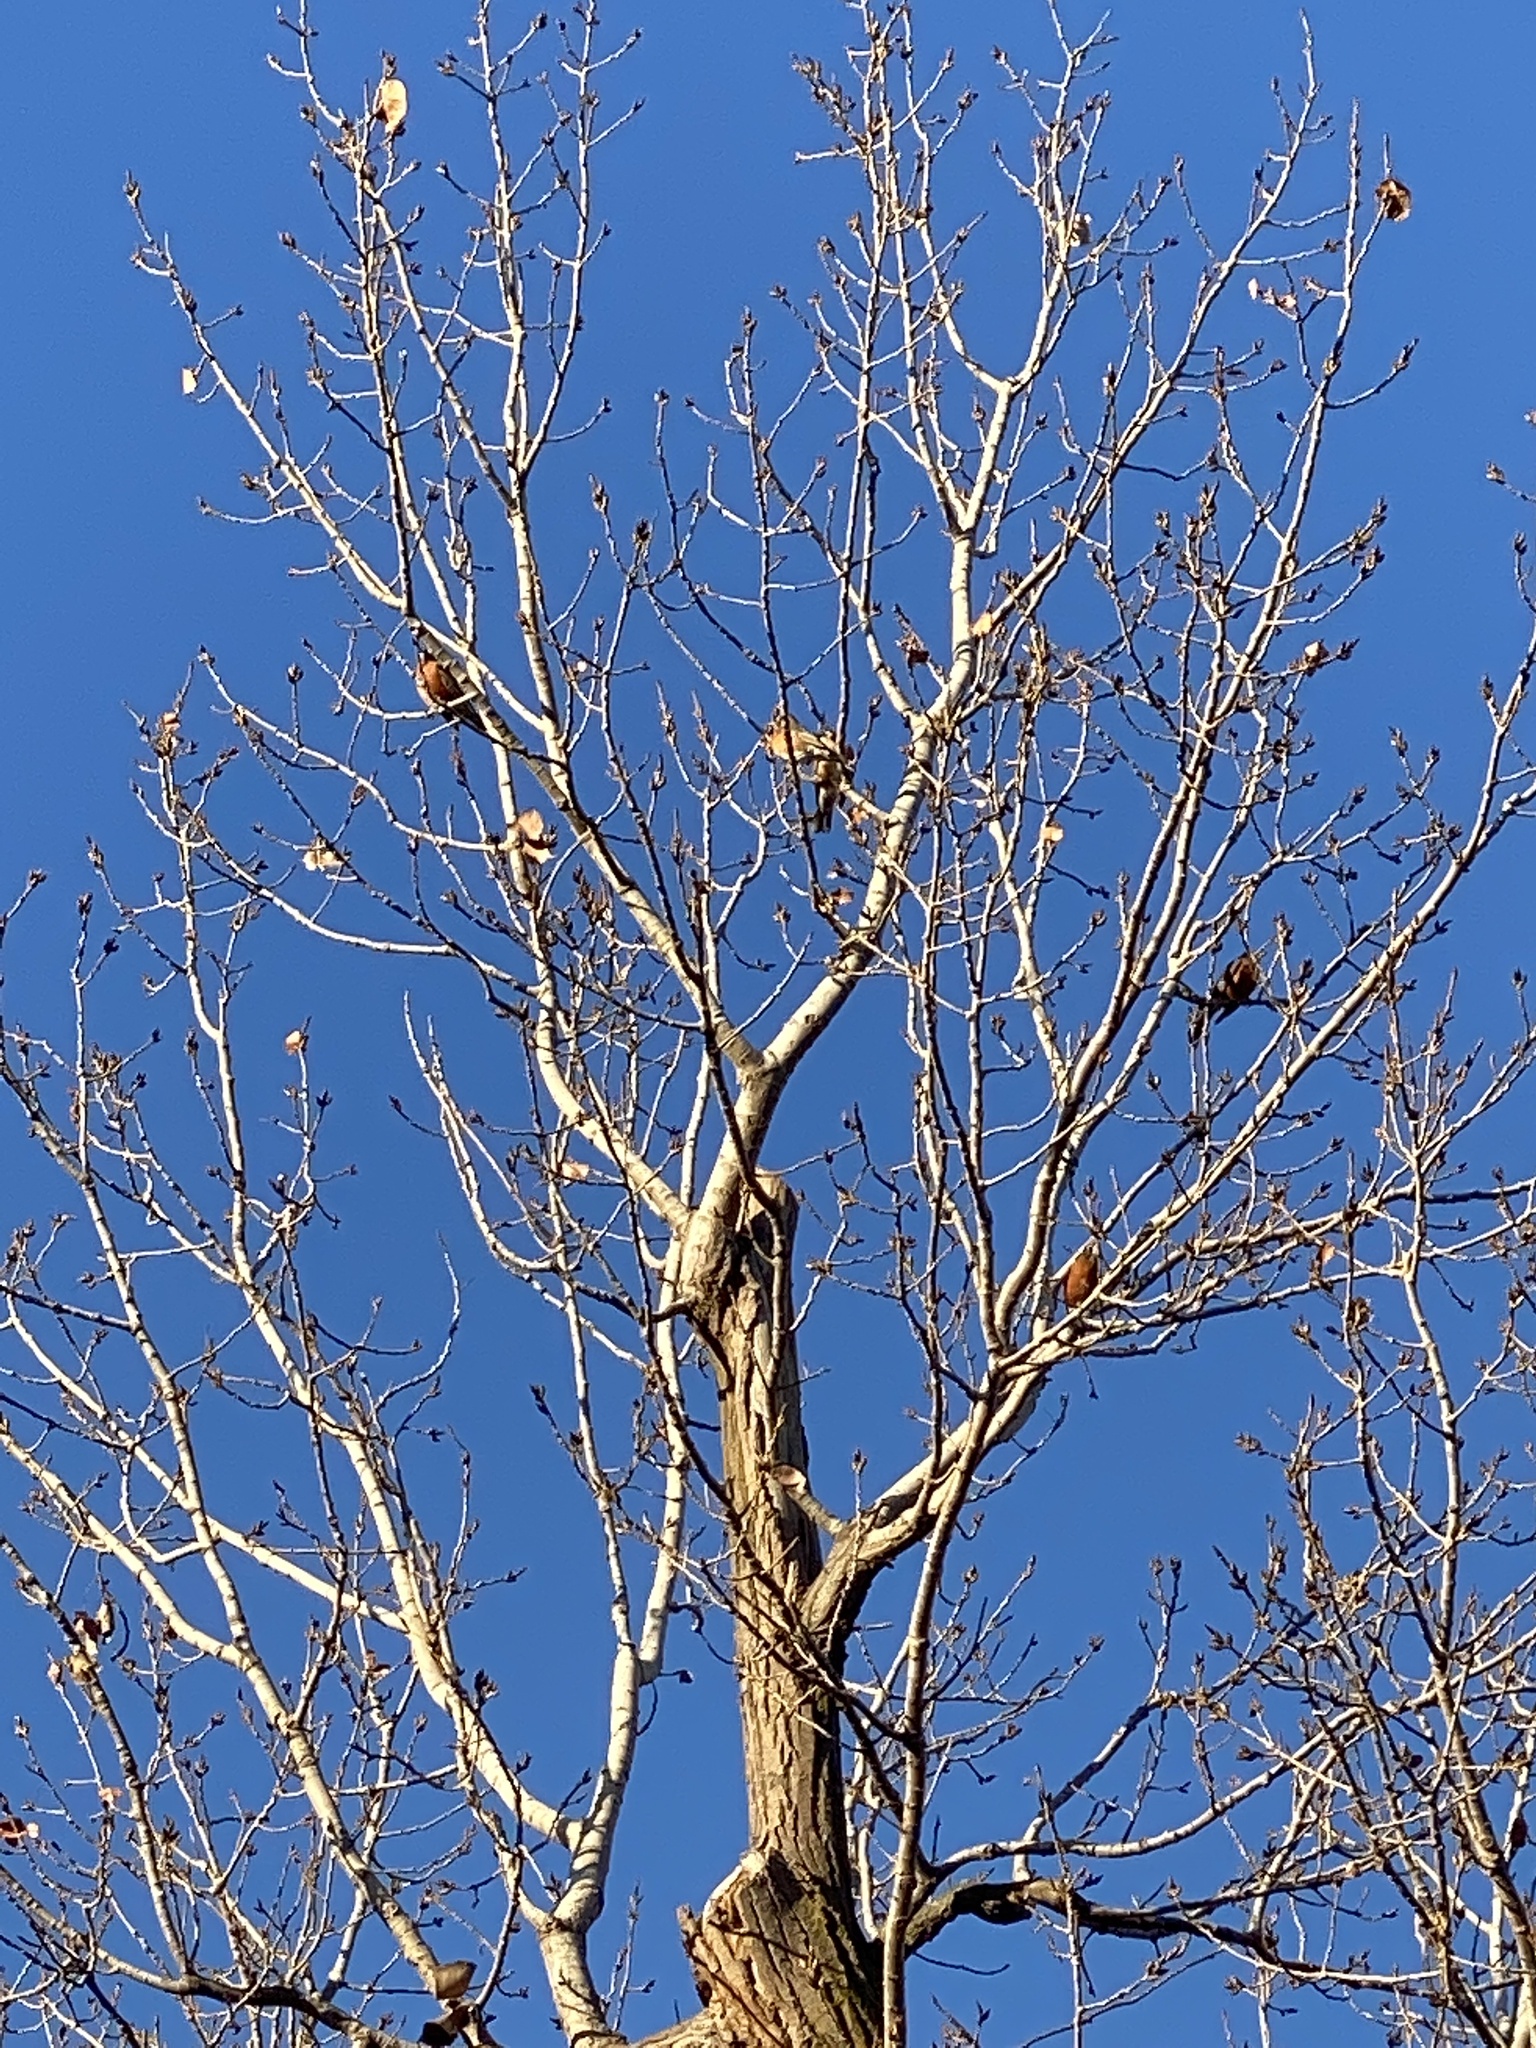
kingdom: Animalia
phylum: Chordata
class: Aves
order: Passeriformes
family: Turdidae
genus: Turdus
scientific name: Turdus migratorius
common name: American robin
